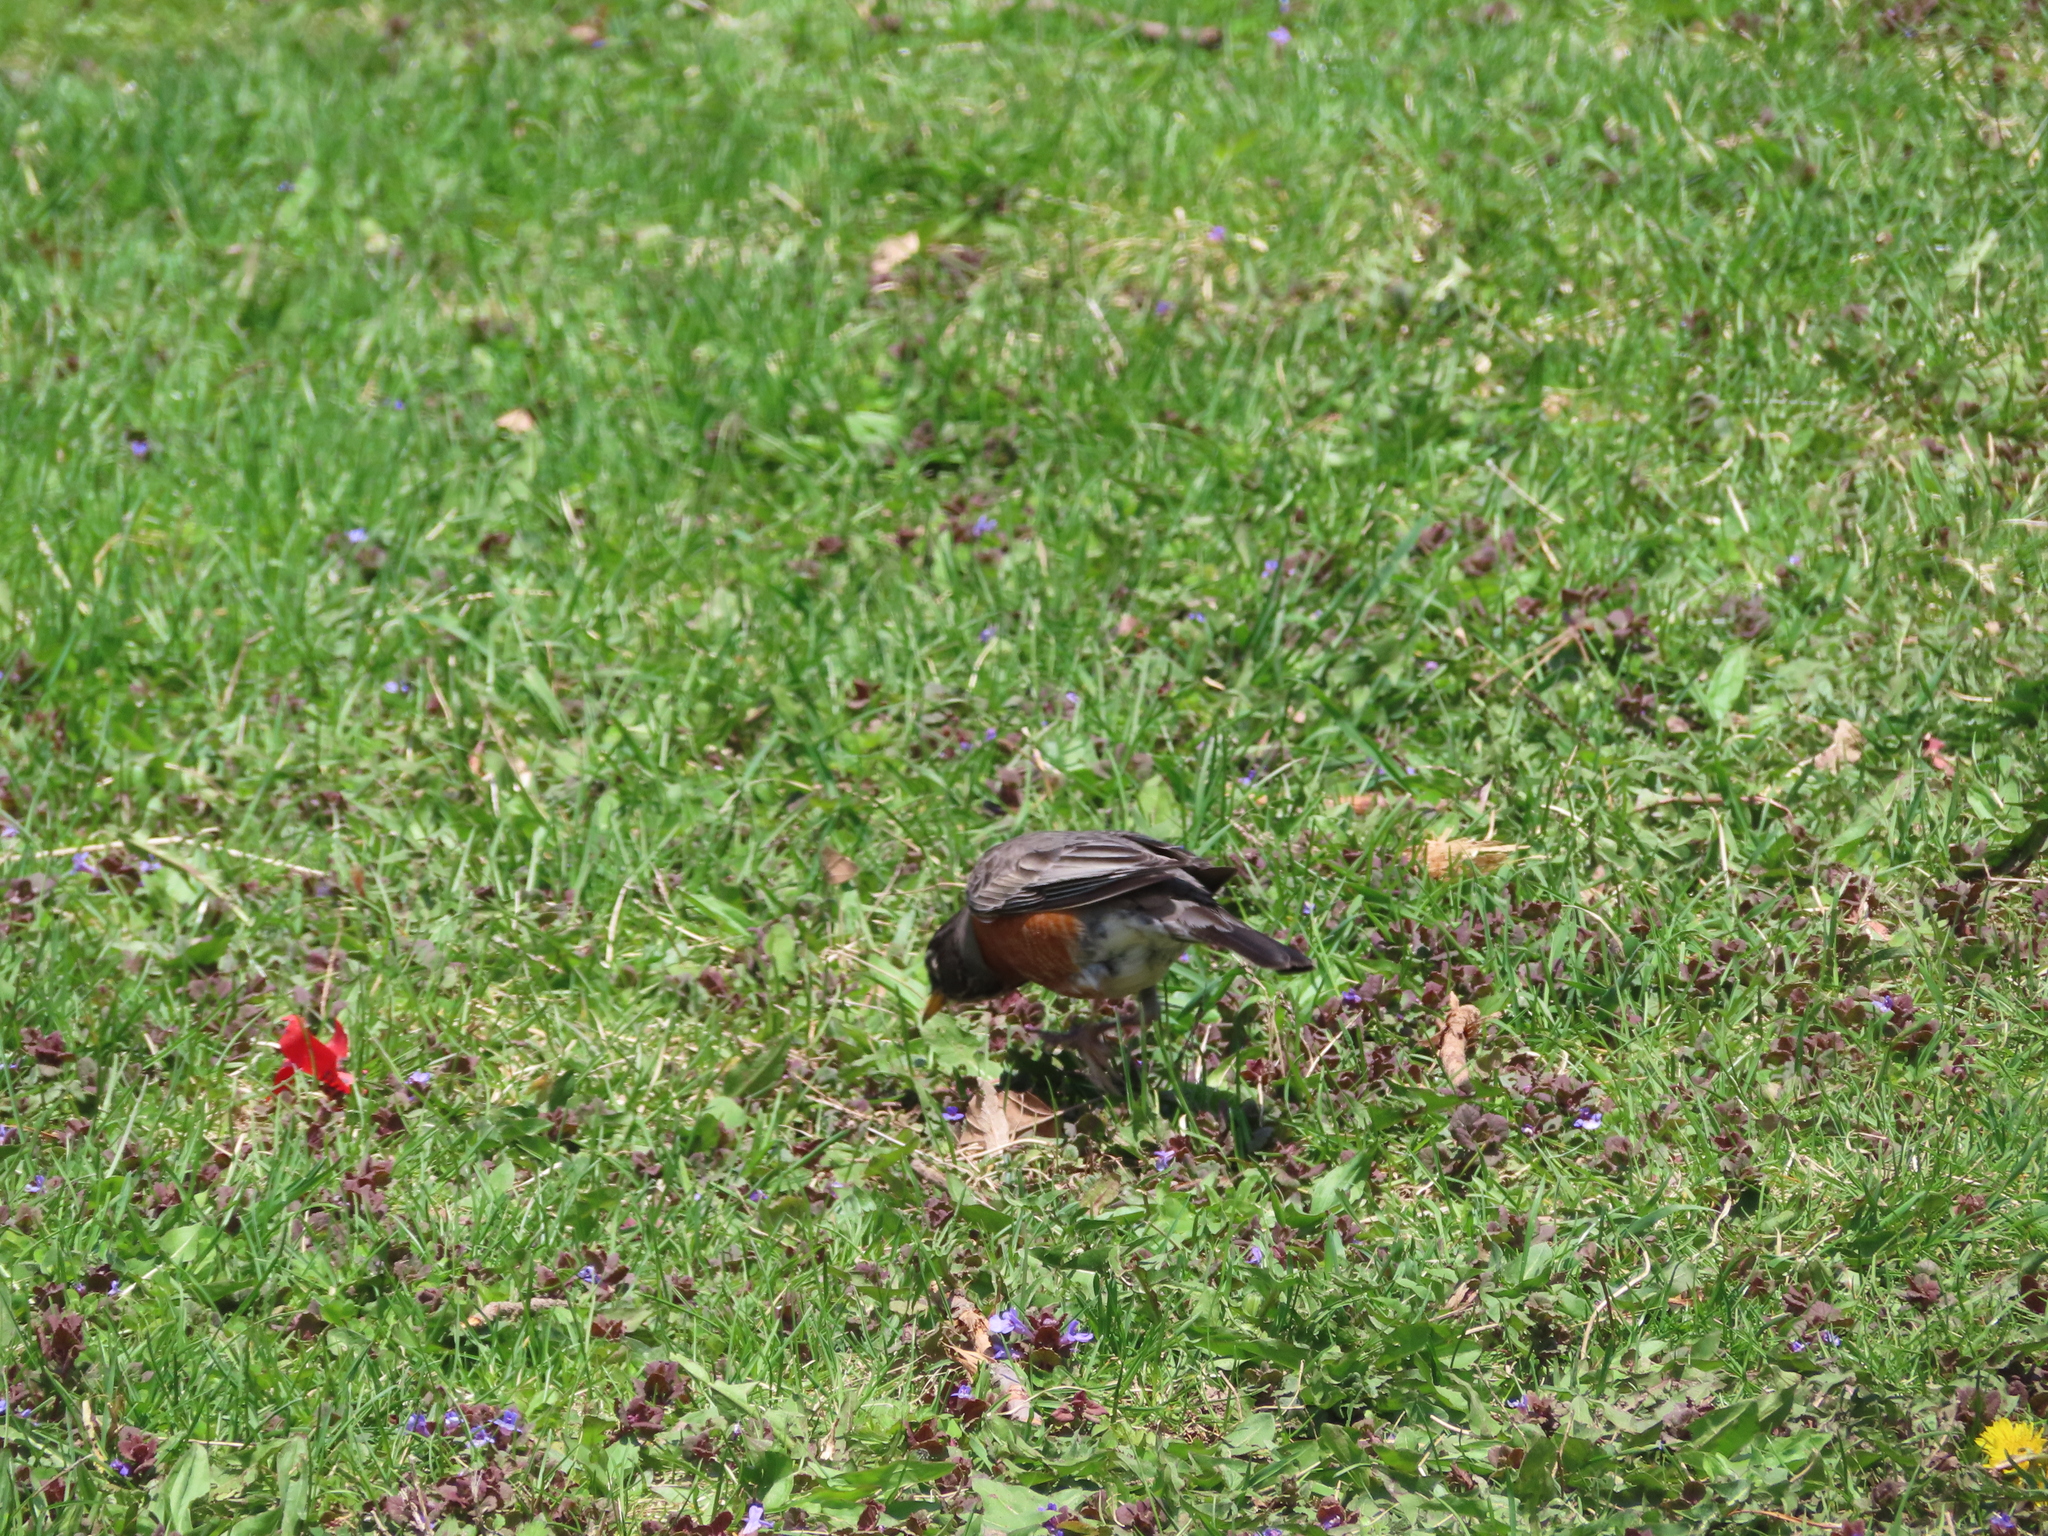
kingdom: Animalia
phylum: Chordata
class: Aves
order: Passeriformes
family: Turdidae
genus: Turdus
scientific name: Turdus migratorius
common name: American robin
